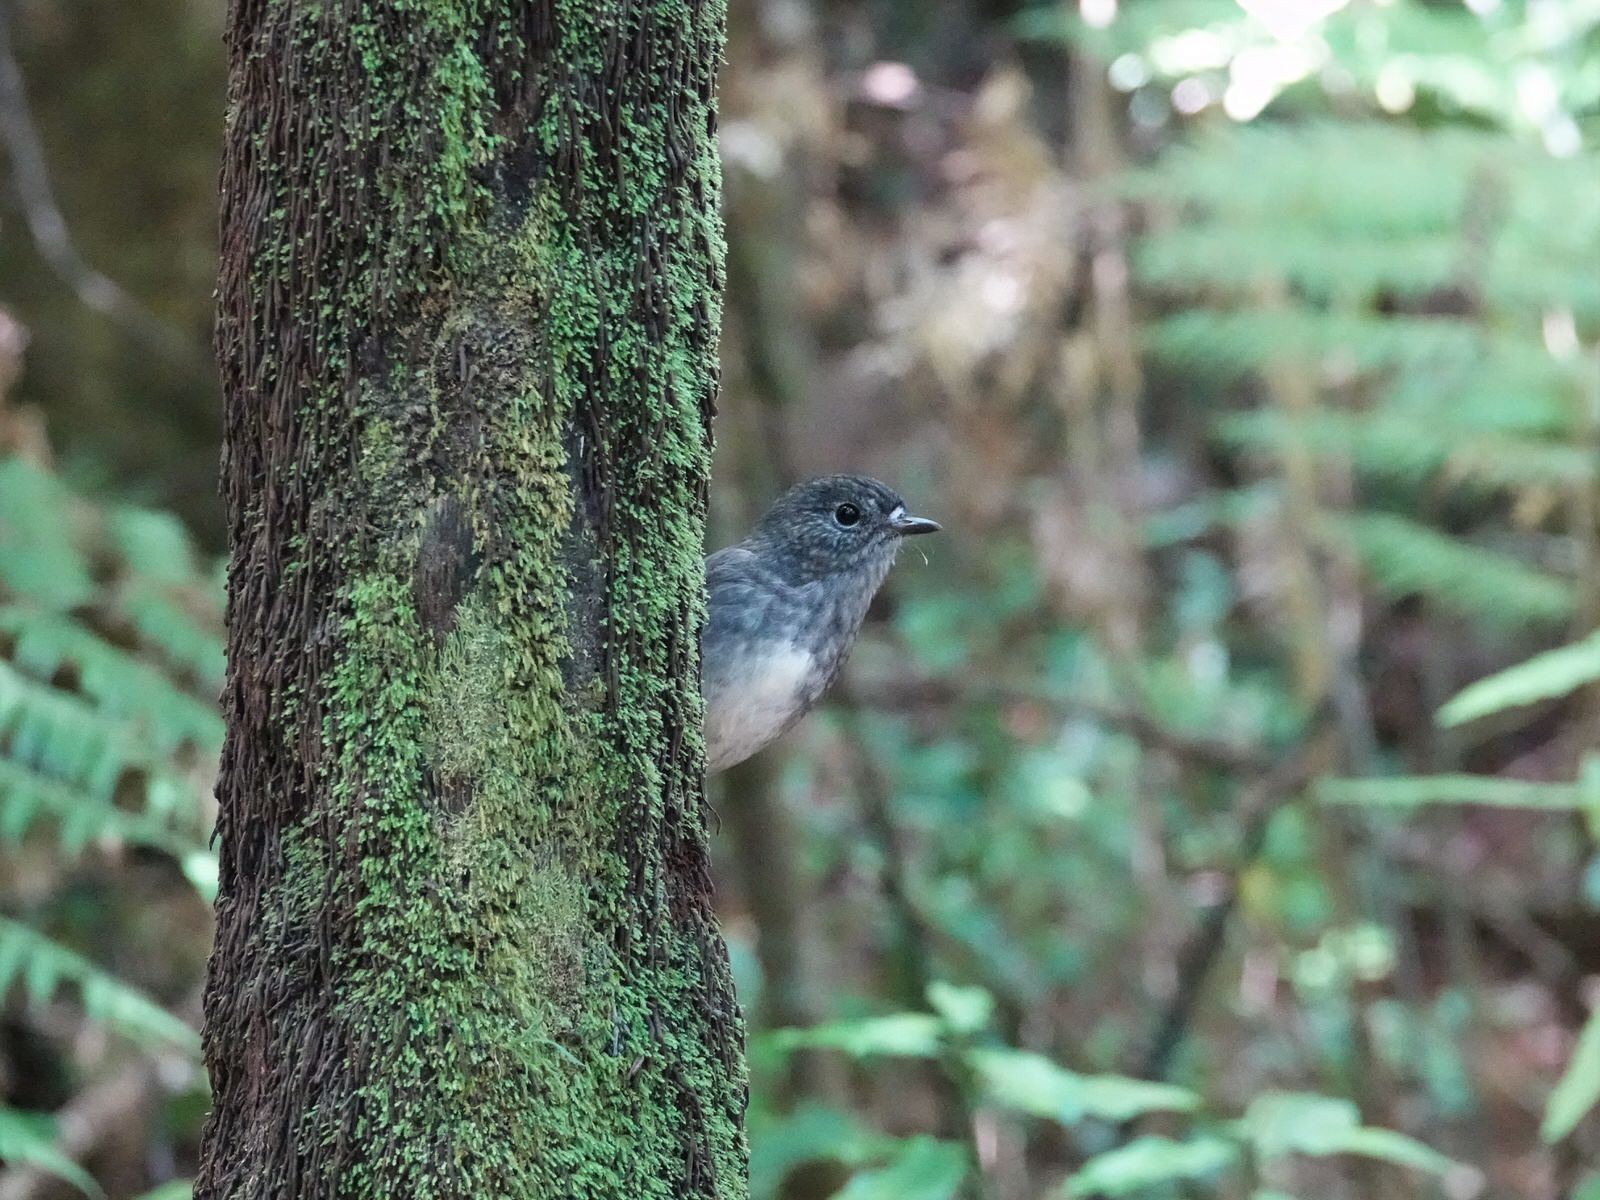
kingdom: Animalia
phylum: Chordata
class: Aves
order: Passeriformes
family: Petroicidae
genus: Petroica
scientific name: Petroica australis
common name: New zealand robin
